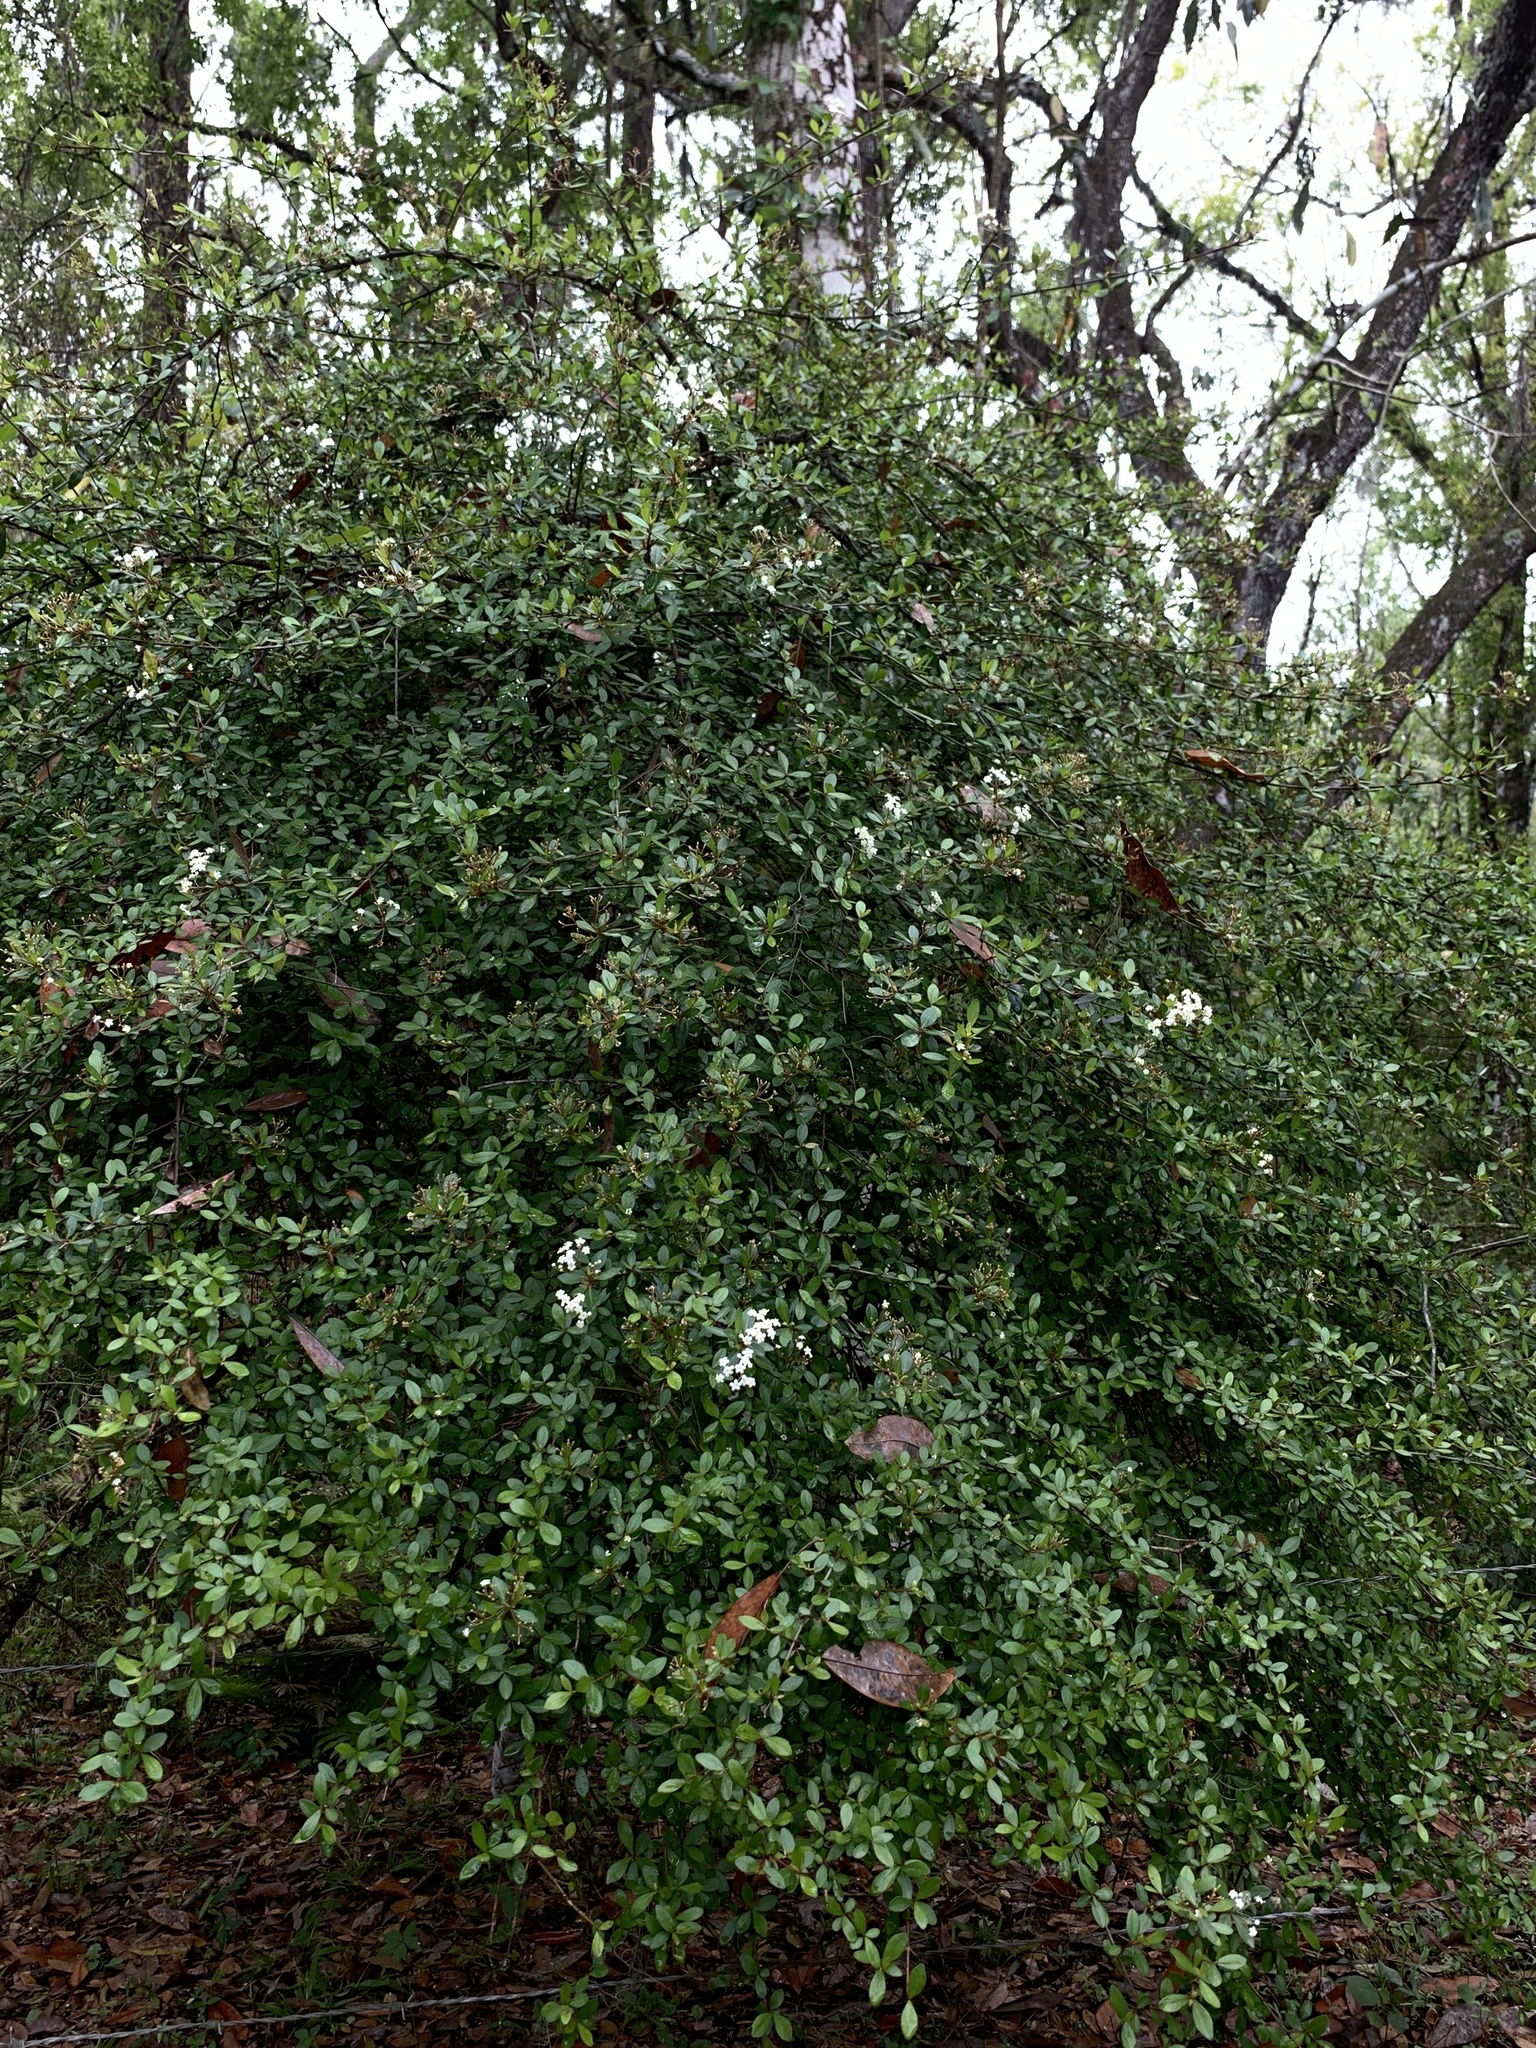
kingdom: Plantae
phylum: Tracheophyta
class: Magnoliopsida
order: Dipsacales
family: Viburnaceae
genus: Viburnum
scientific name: Viburnum obovatum
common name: Walter's viburnum
